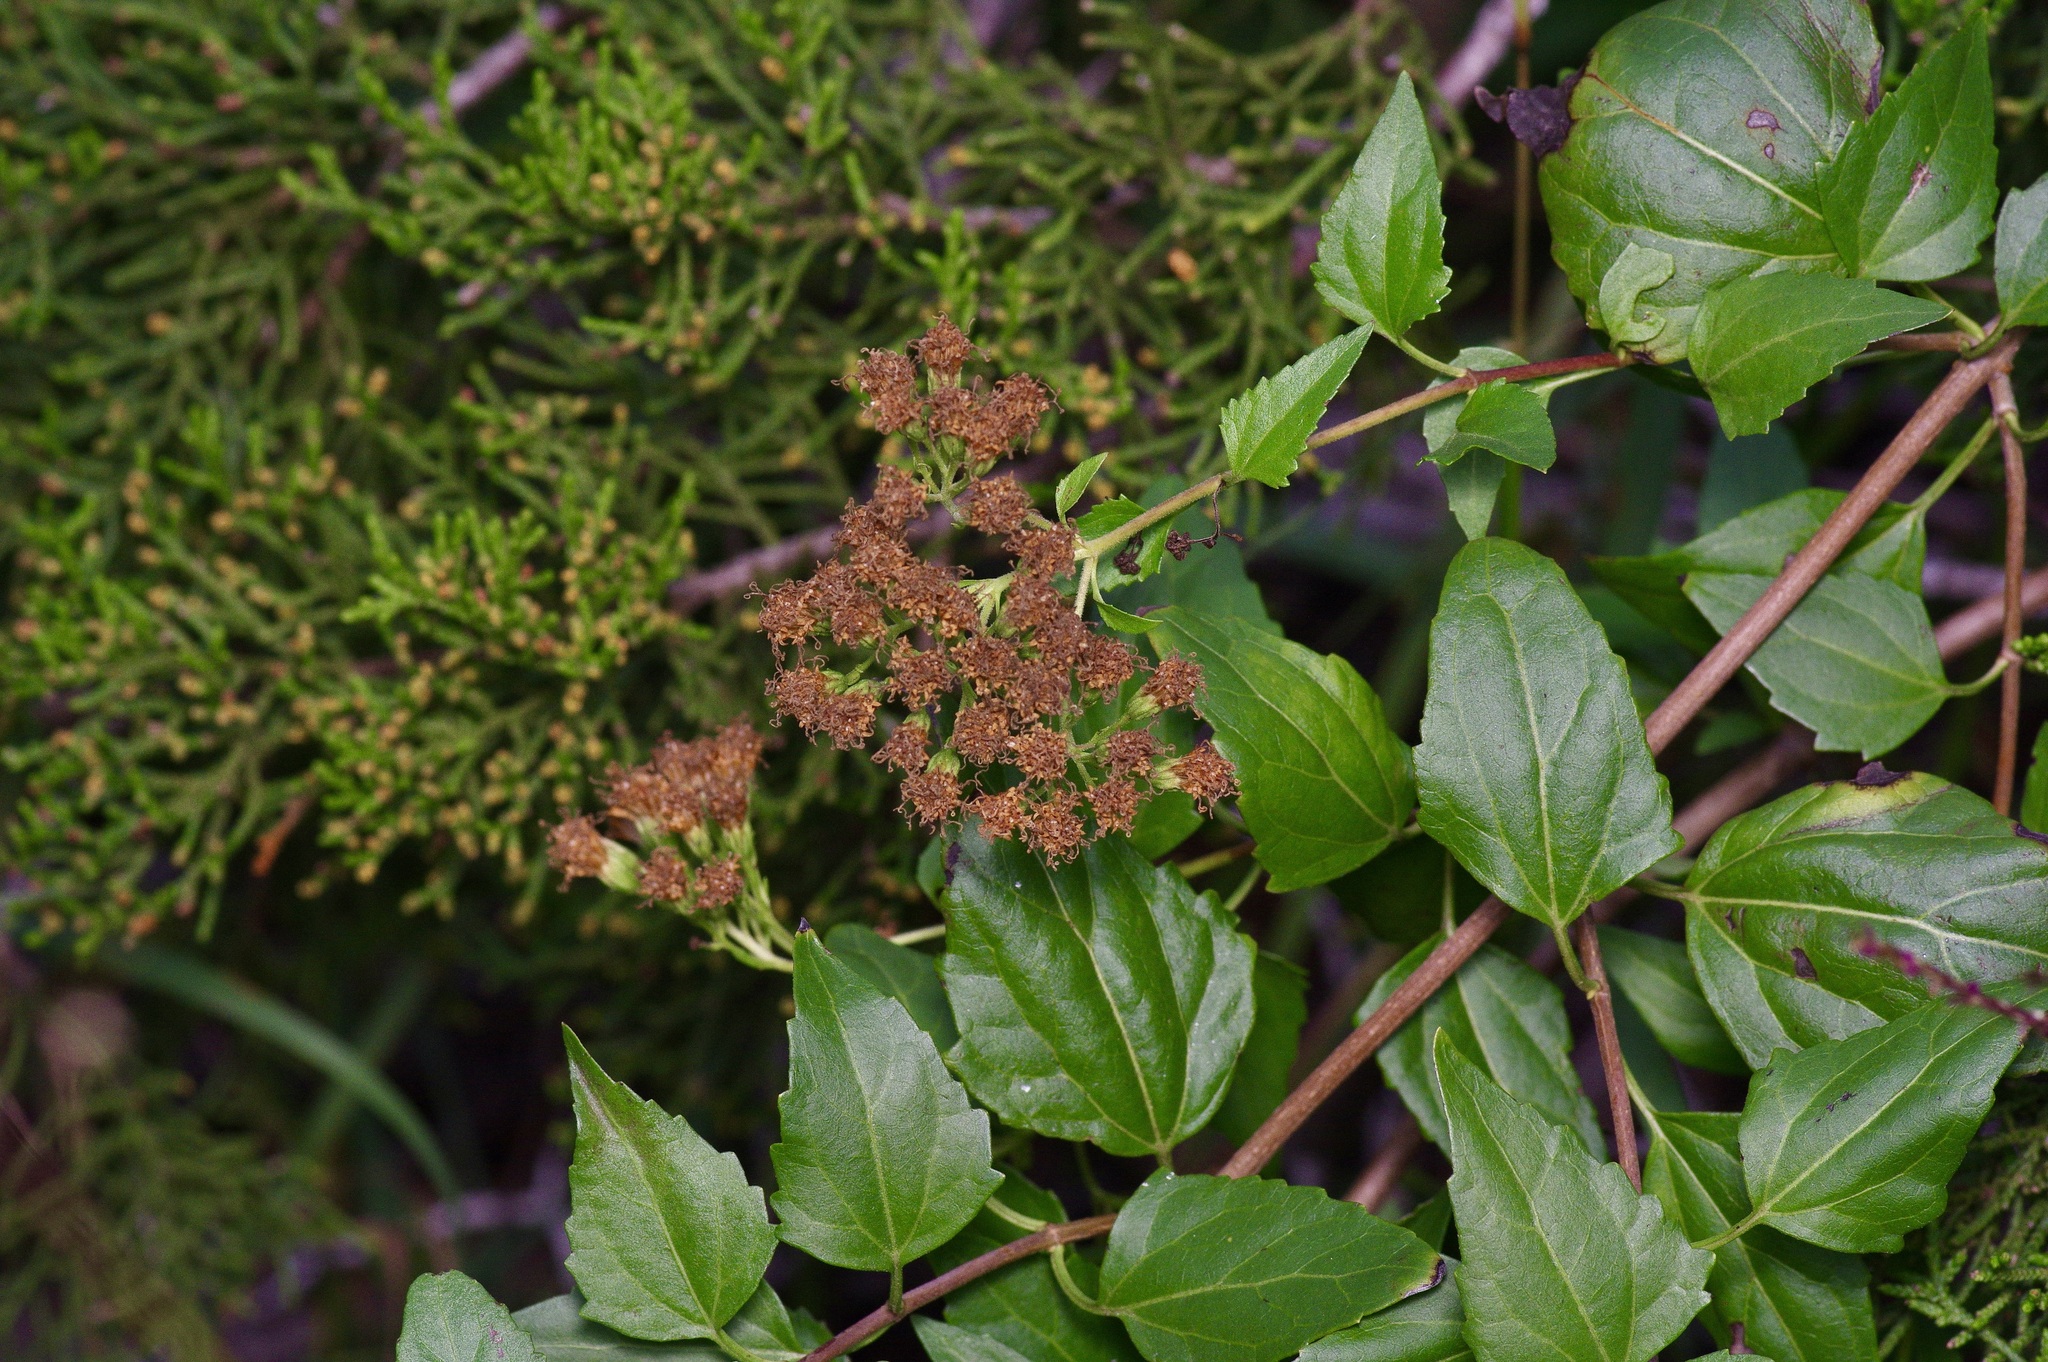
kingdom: Plantae
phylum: Tracheophyta
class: Magnoliopsida
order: Asterales
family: Asteraceae
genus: Ageratina
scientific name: Ageratina havanensis
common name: Havana snakeroot
